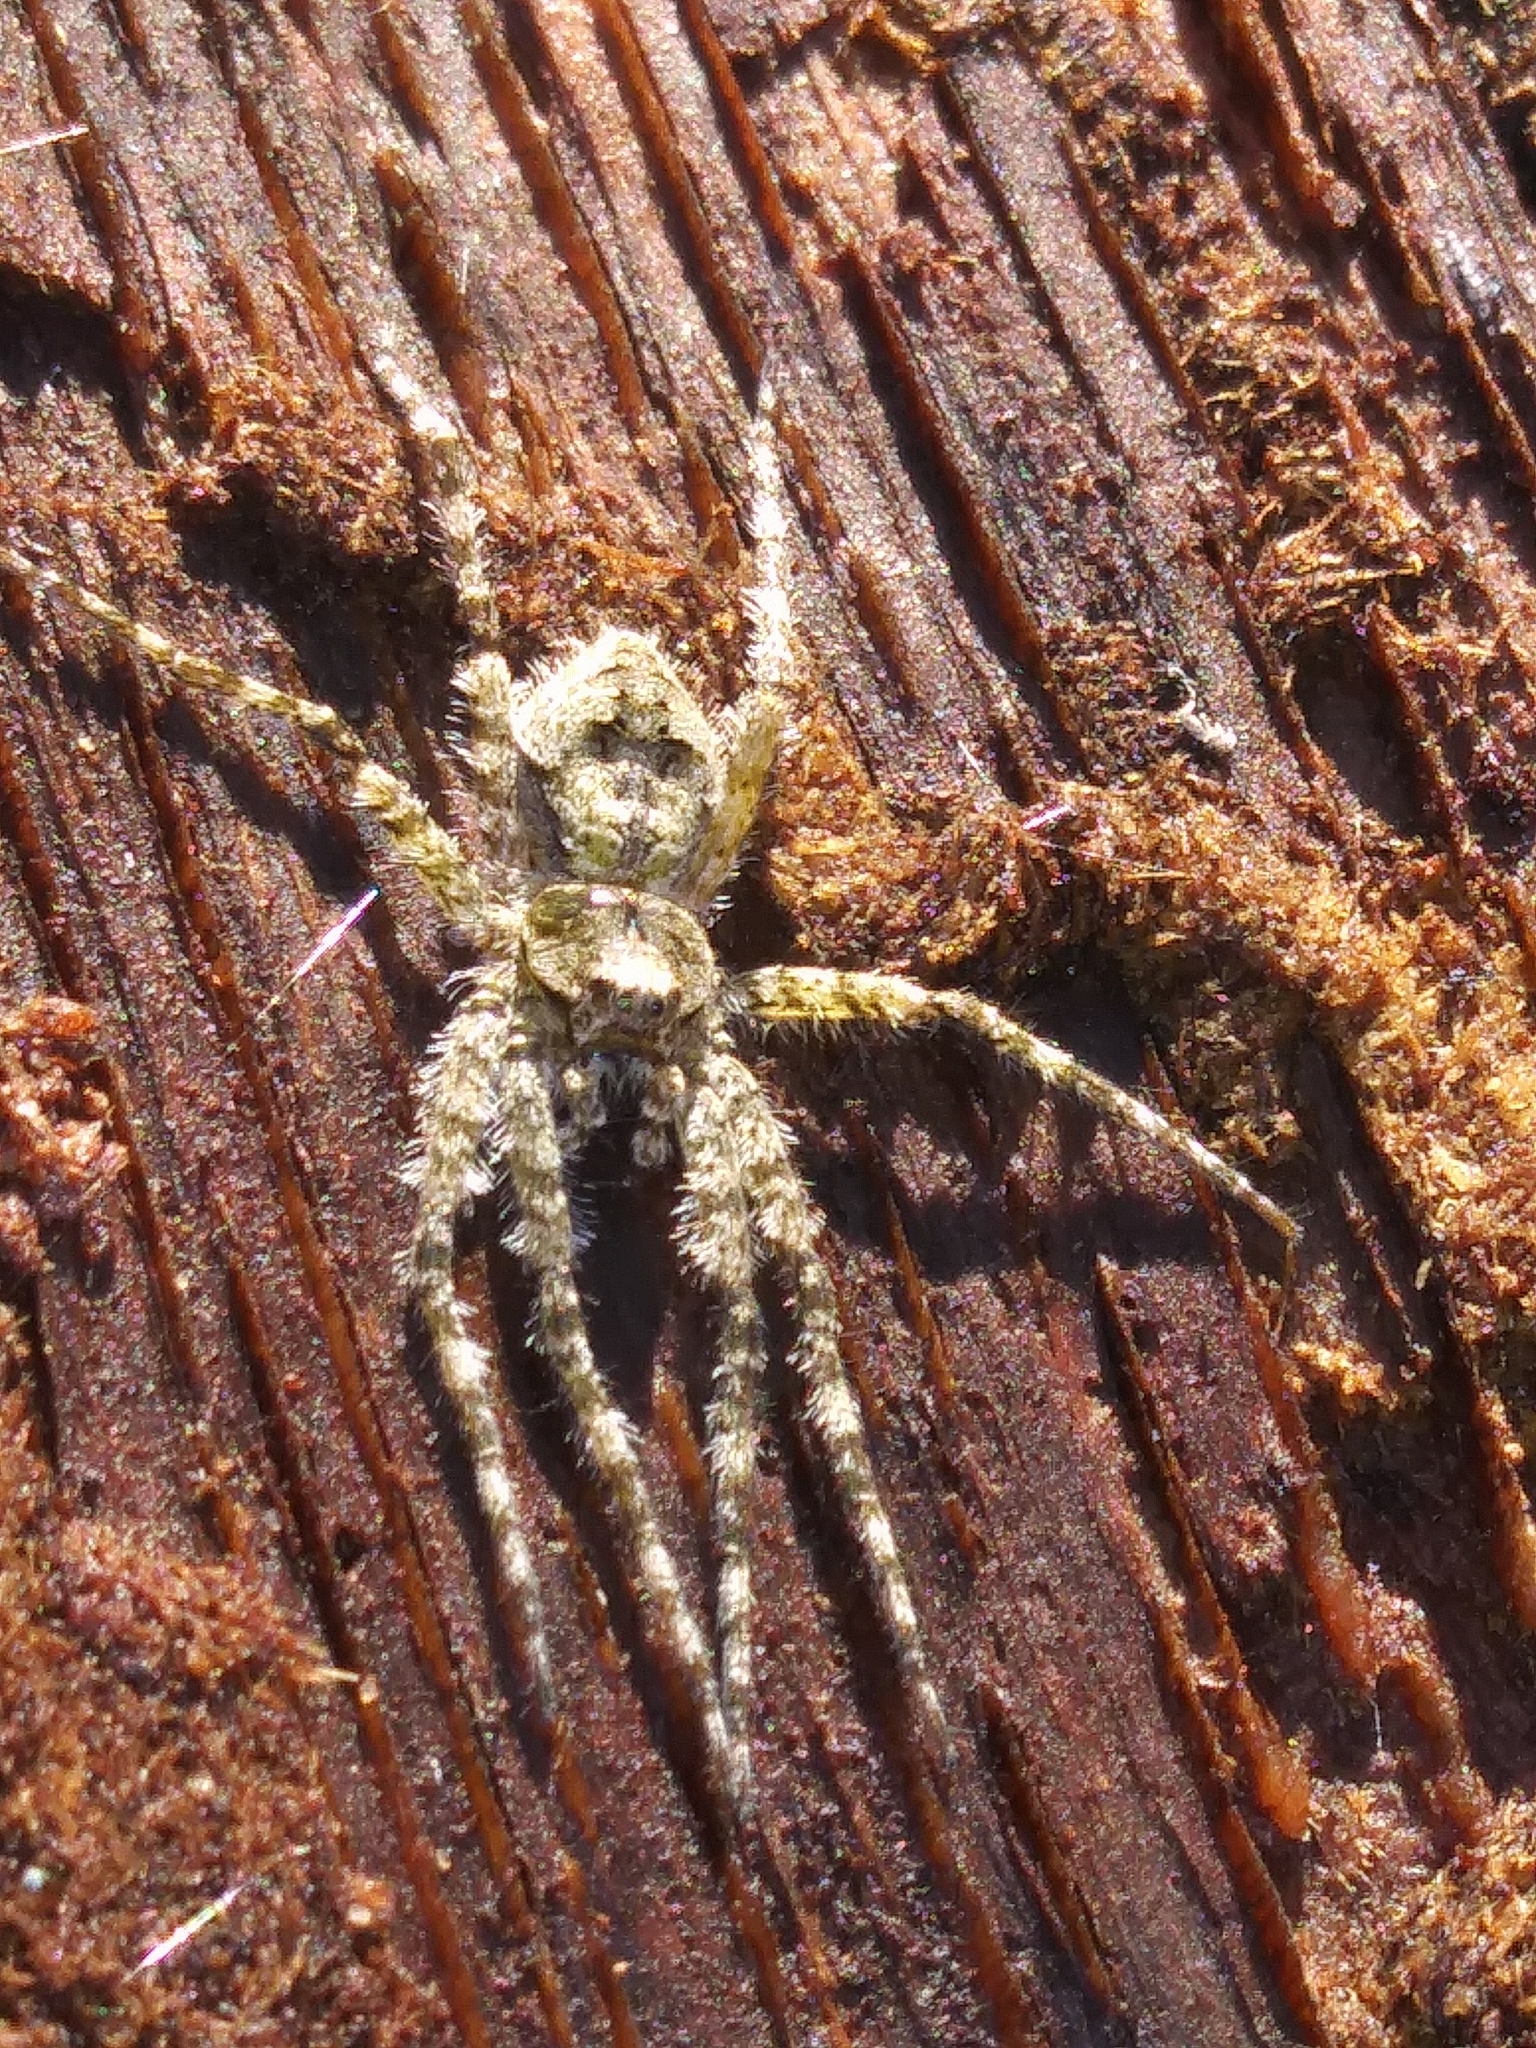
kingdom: Animalia
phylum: Arthropoda
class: Arachnida
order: Araneae
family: Pisauridae
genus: Dolomedes
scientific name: Dolomedes albineus
